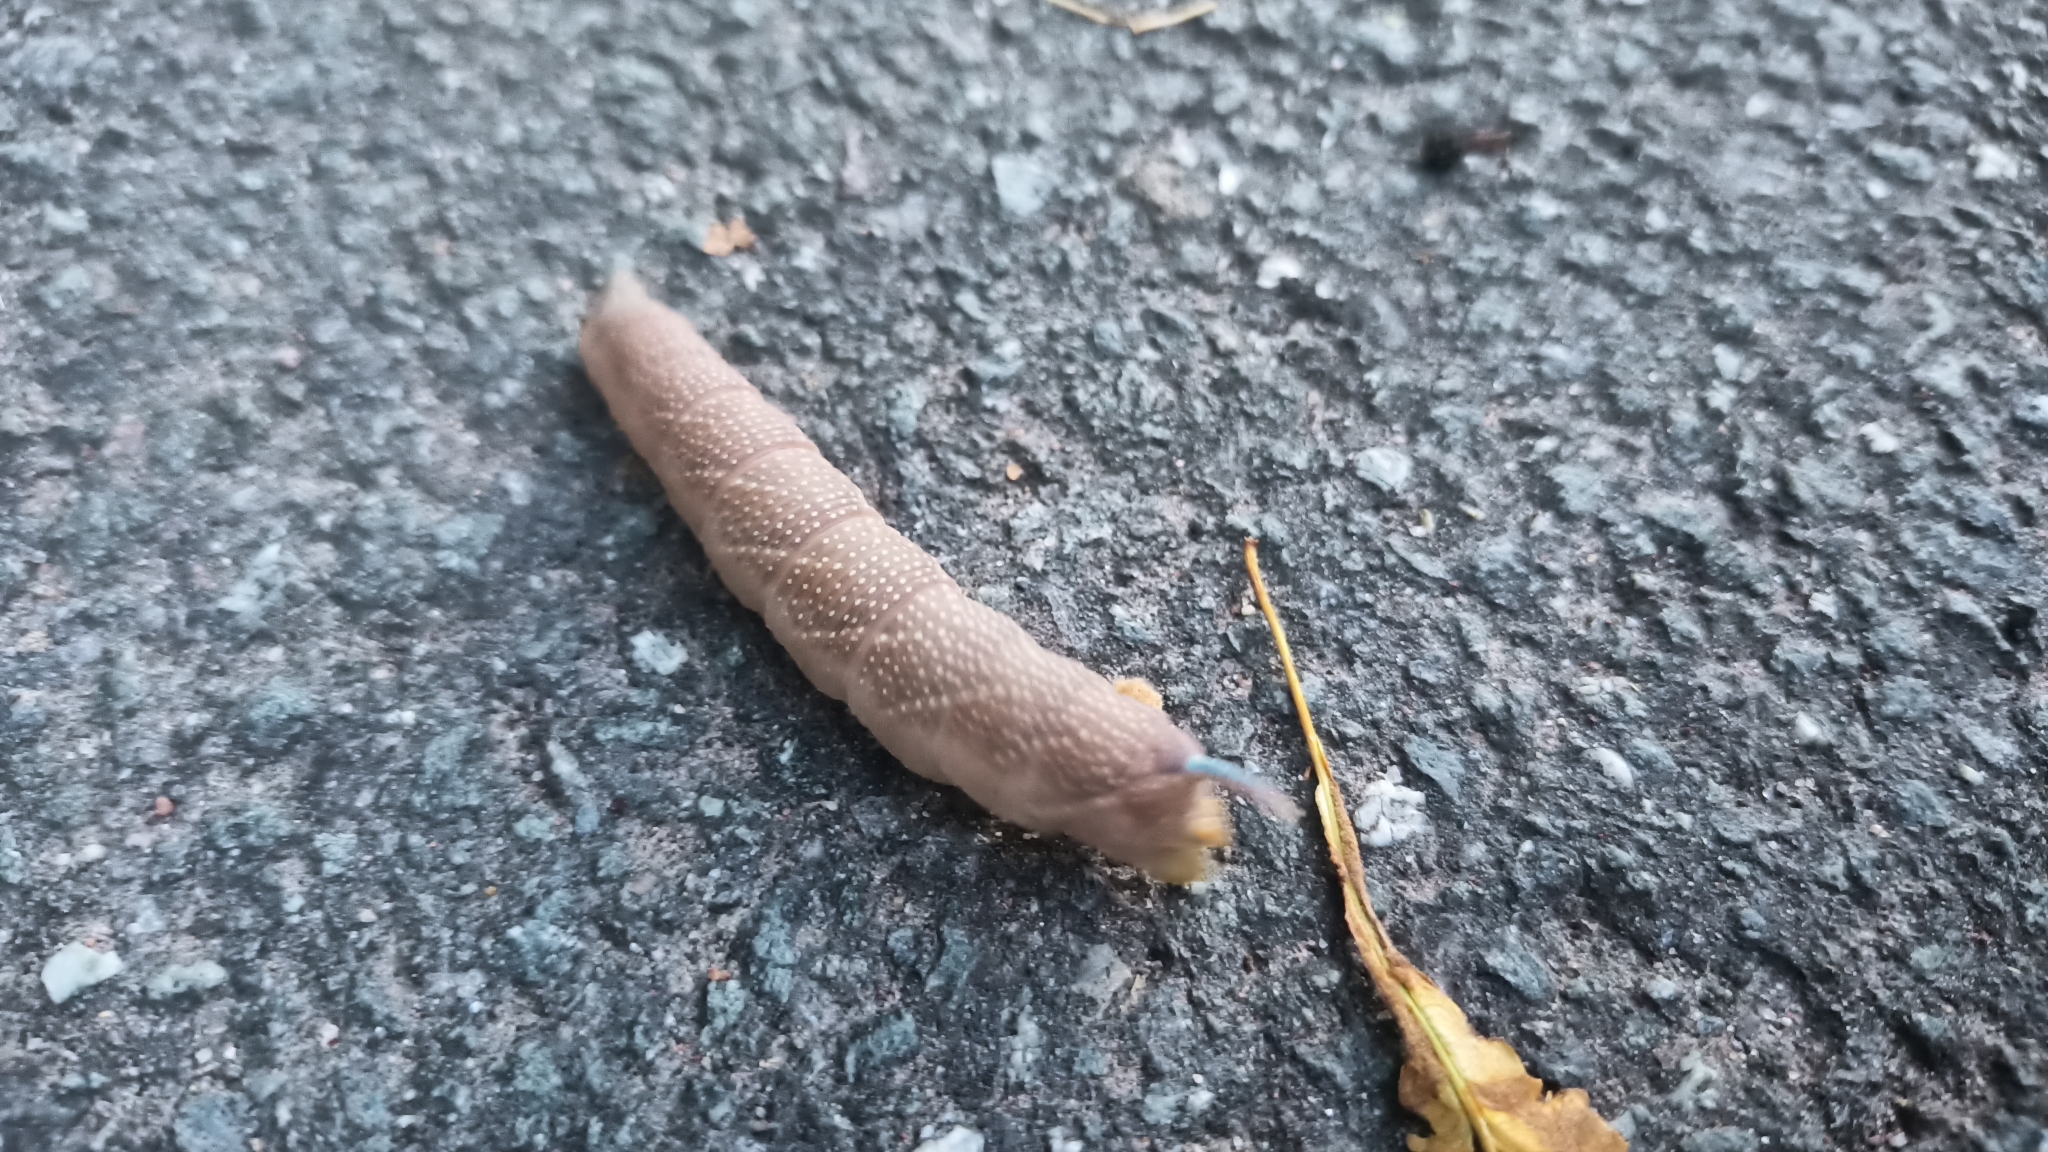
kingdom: Animalia
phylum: Arthropoda
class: Insecta
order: Lepidoptera
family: Sphingidae
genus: Mimas
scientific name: Mimas tiliae
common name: Lime hawk-moth
